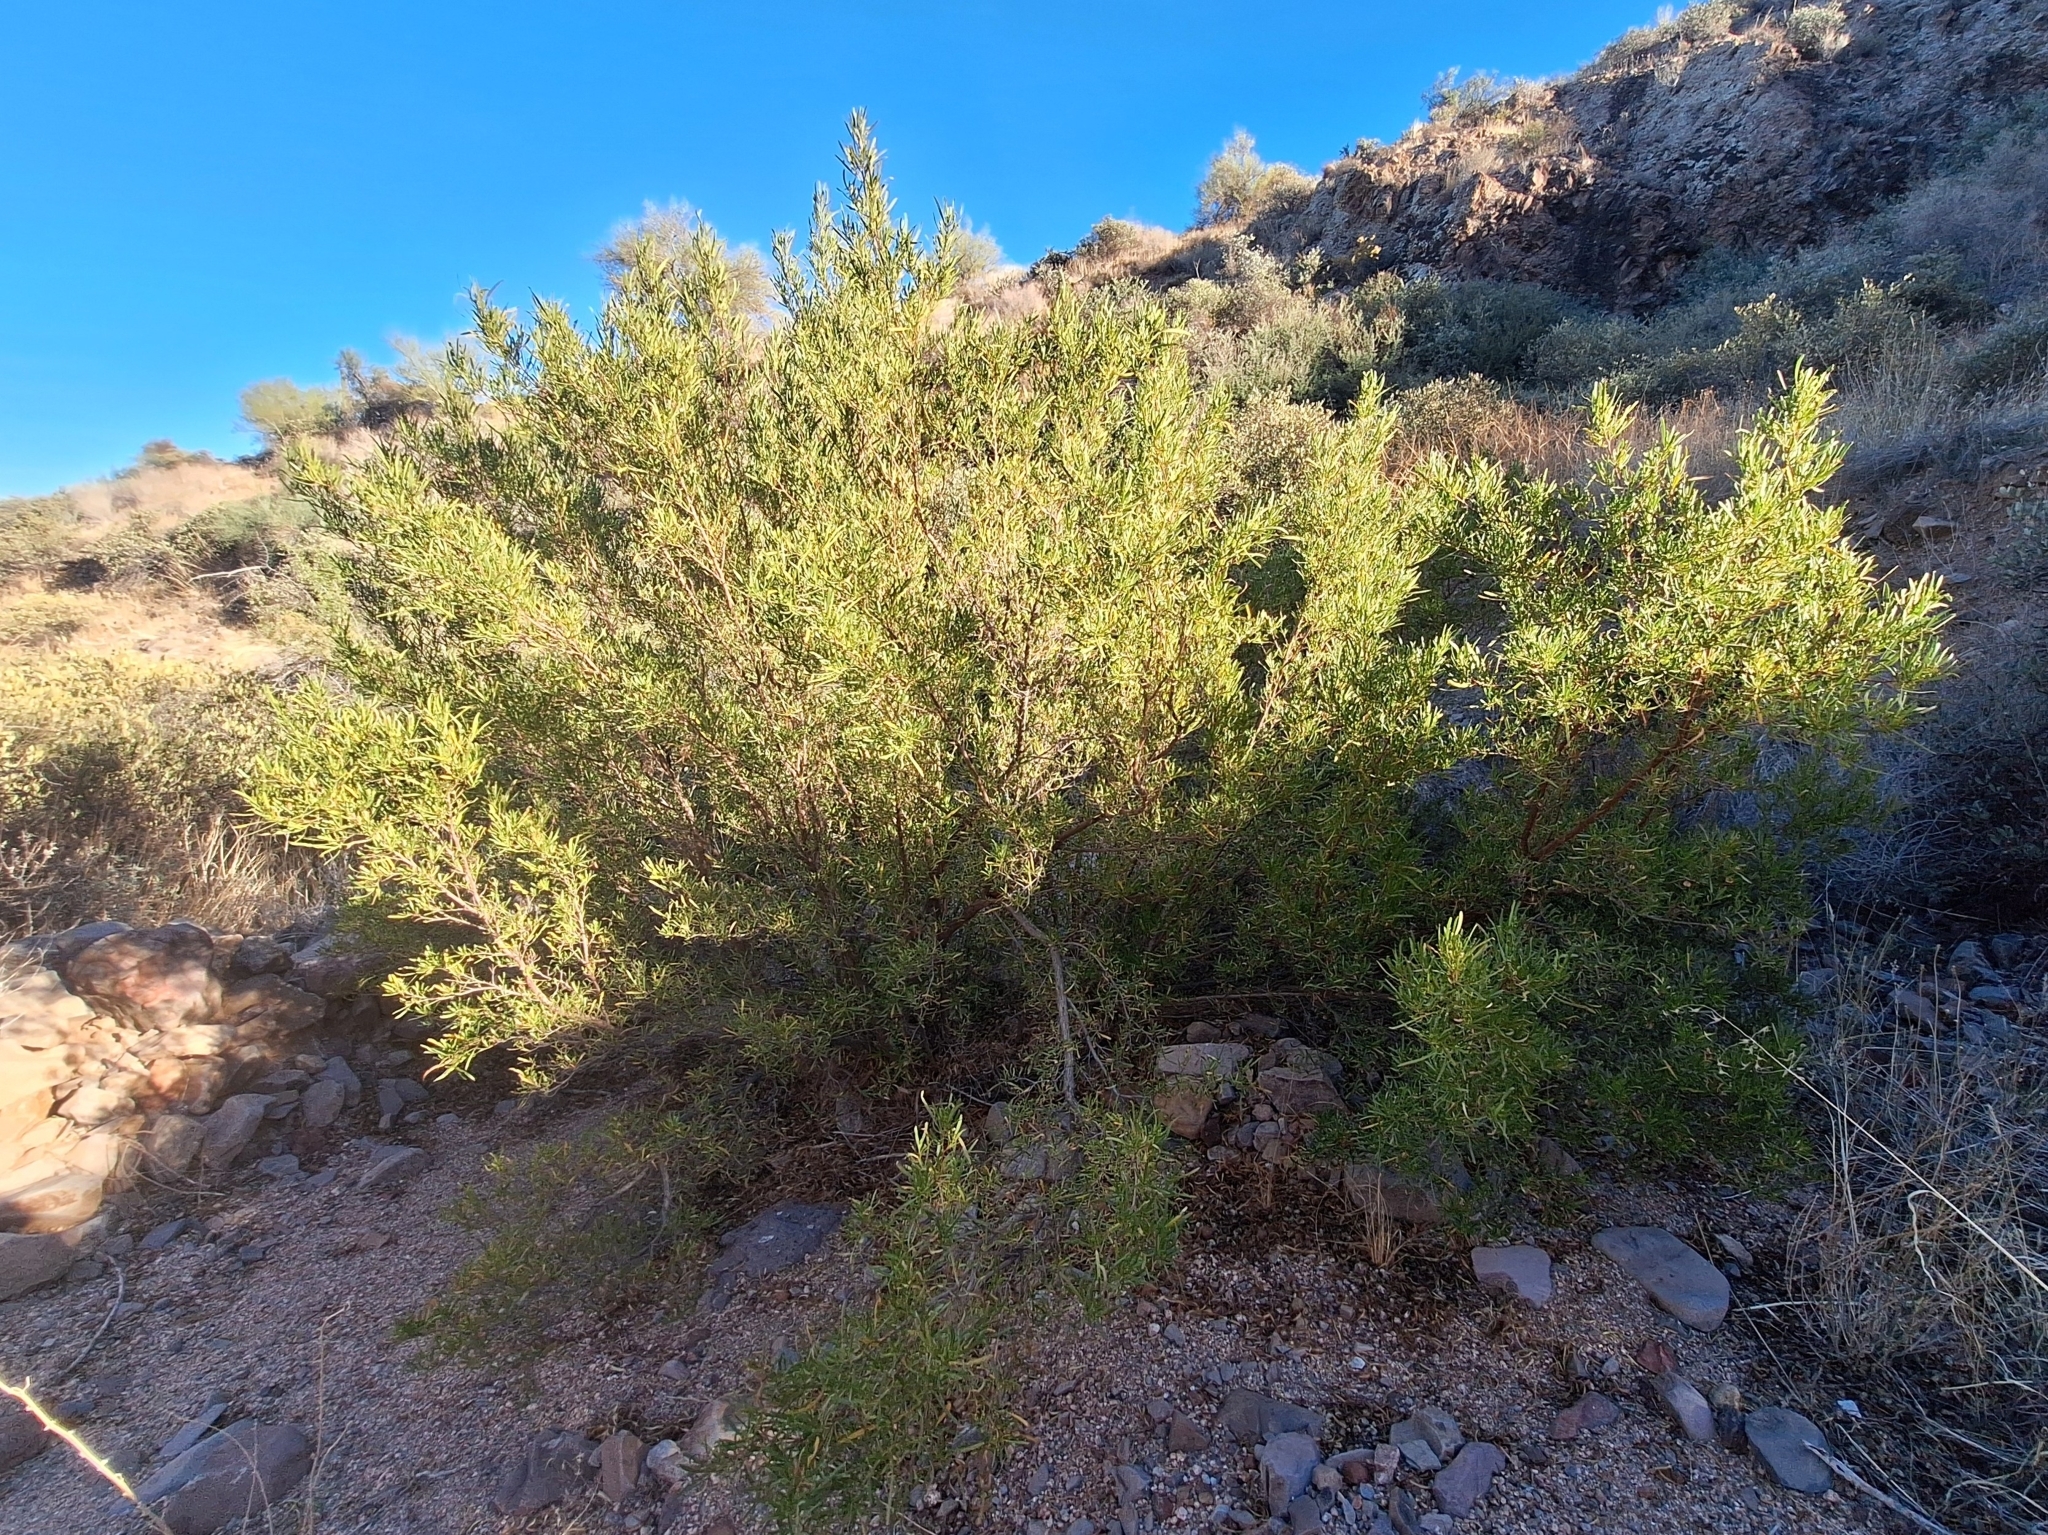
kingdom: Plantae
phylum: Tracheophyta
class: Magnoliopsida
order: Sapindales
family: Sapindaceae
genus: Dodonaea
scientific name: Dodonaea viscosa
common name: Hopbush
